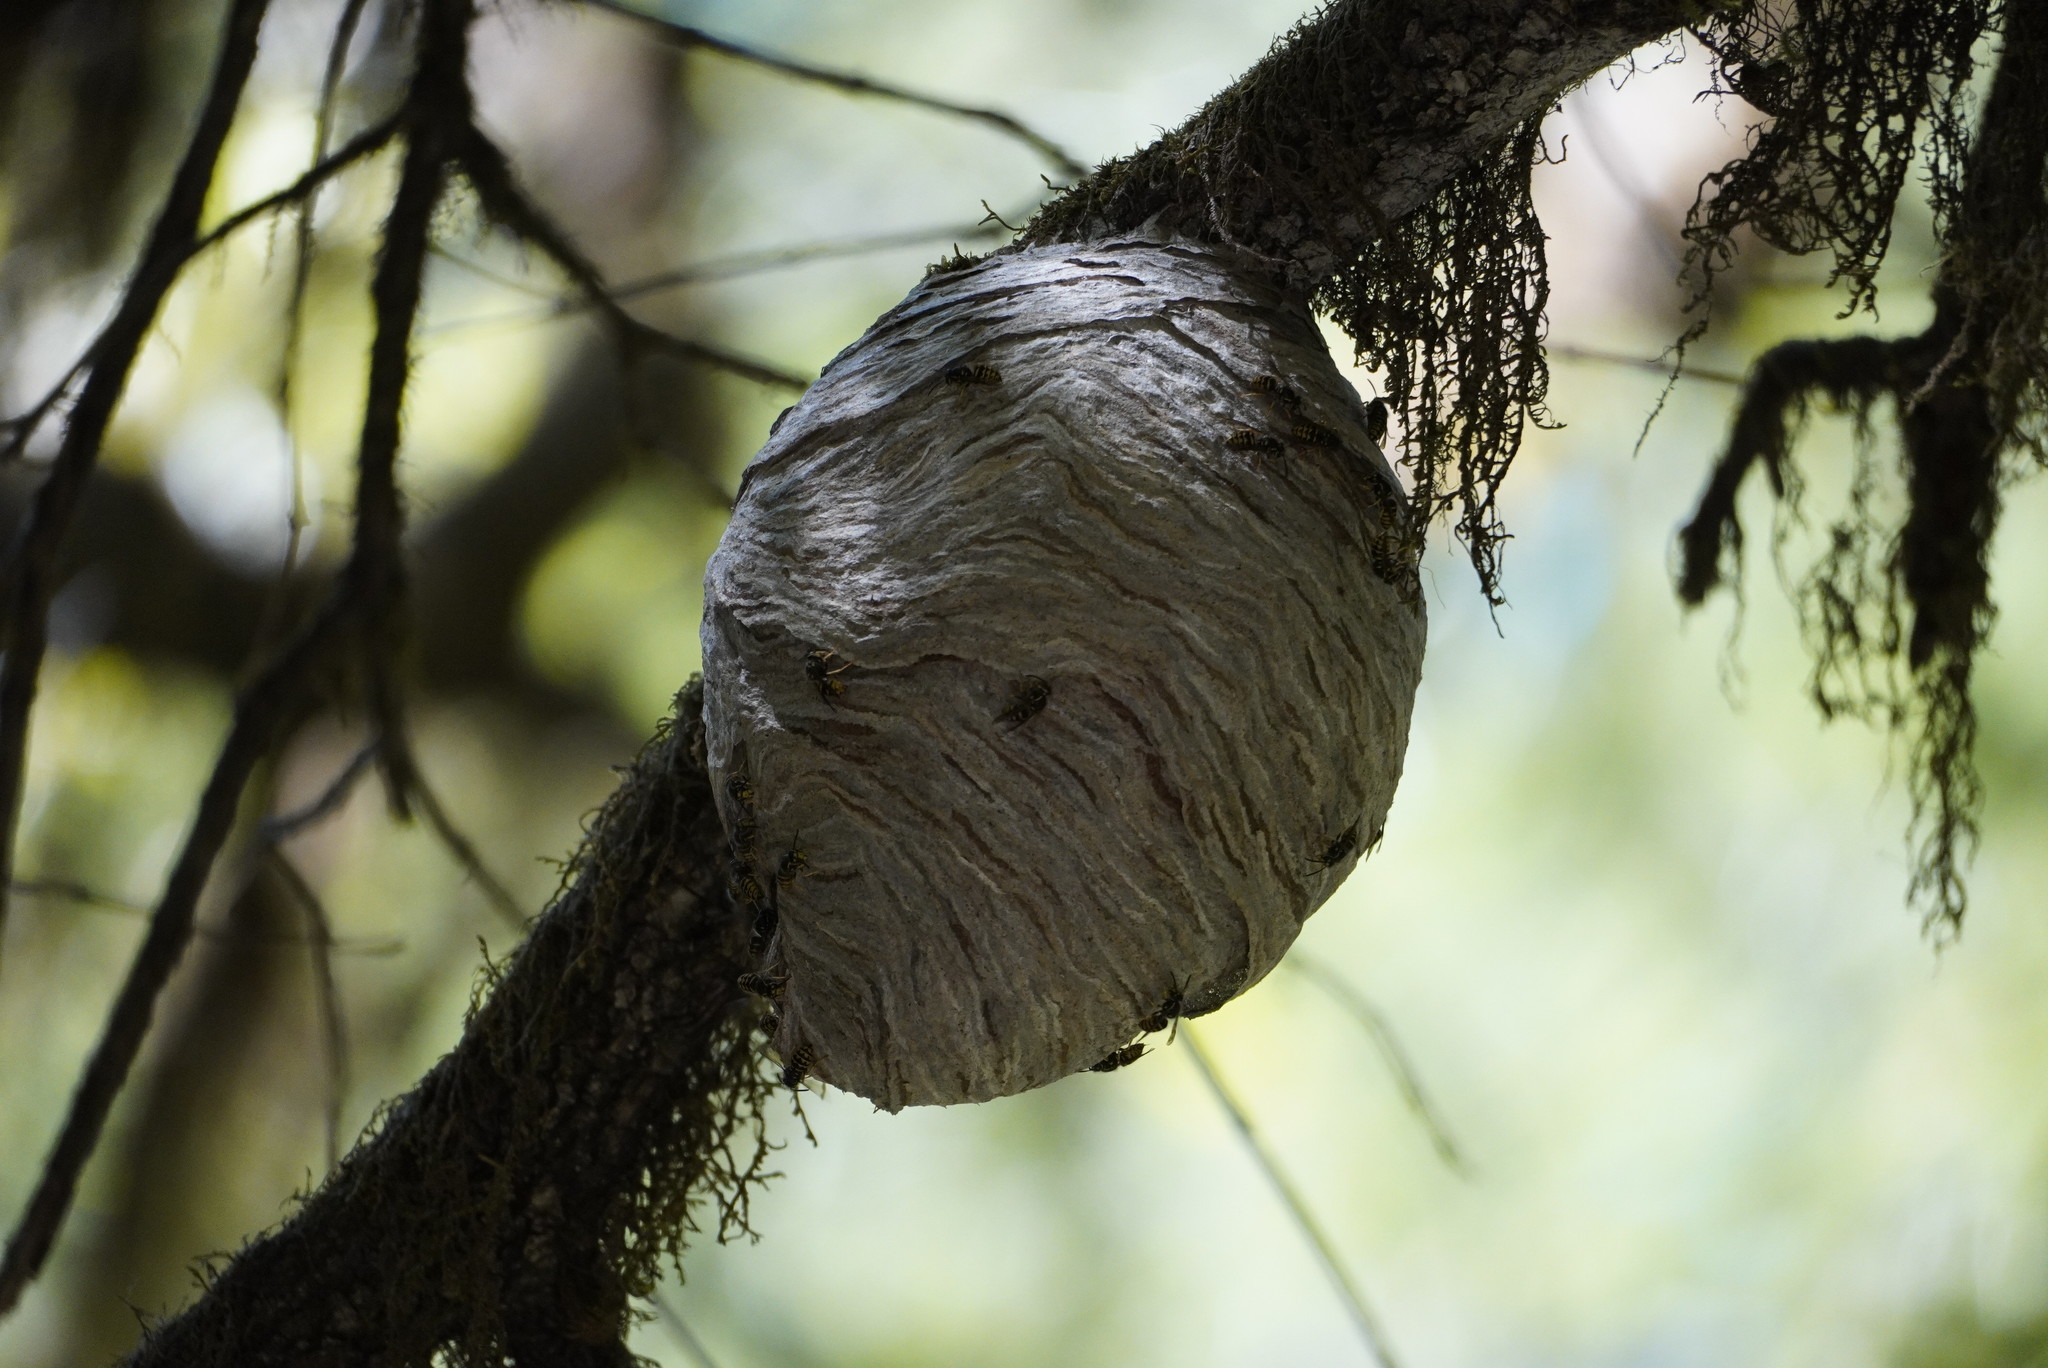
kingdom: Animalia
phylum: Arthropoda
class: Insecta
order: Hymenoptera
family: Vespidae
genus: Dolichovespula
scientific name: Dolichovespula arenaria
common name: Aerial yellowjacket
